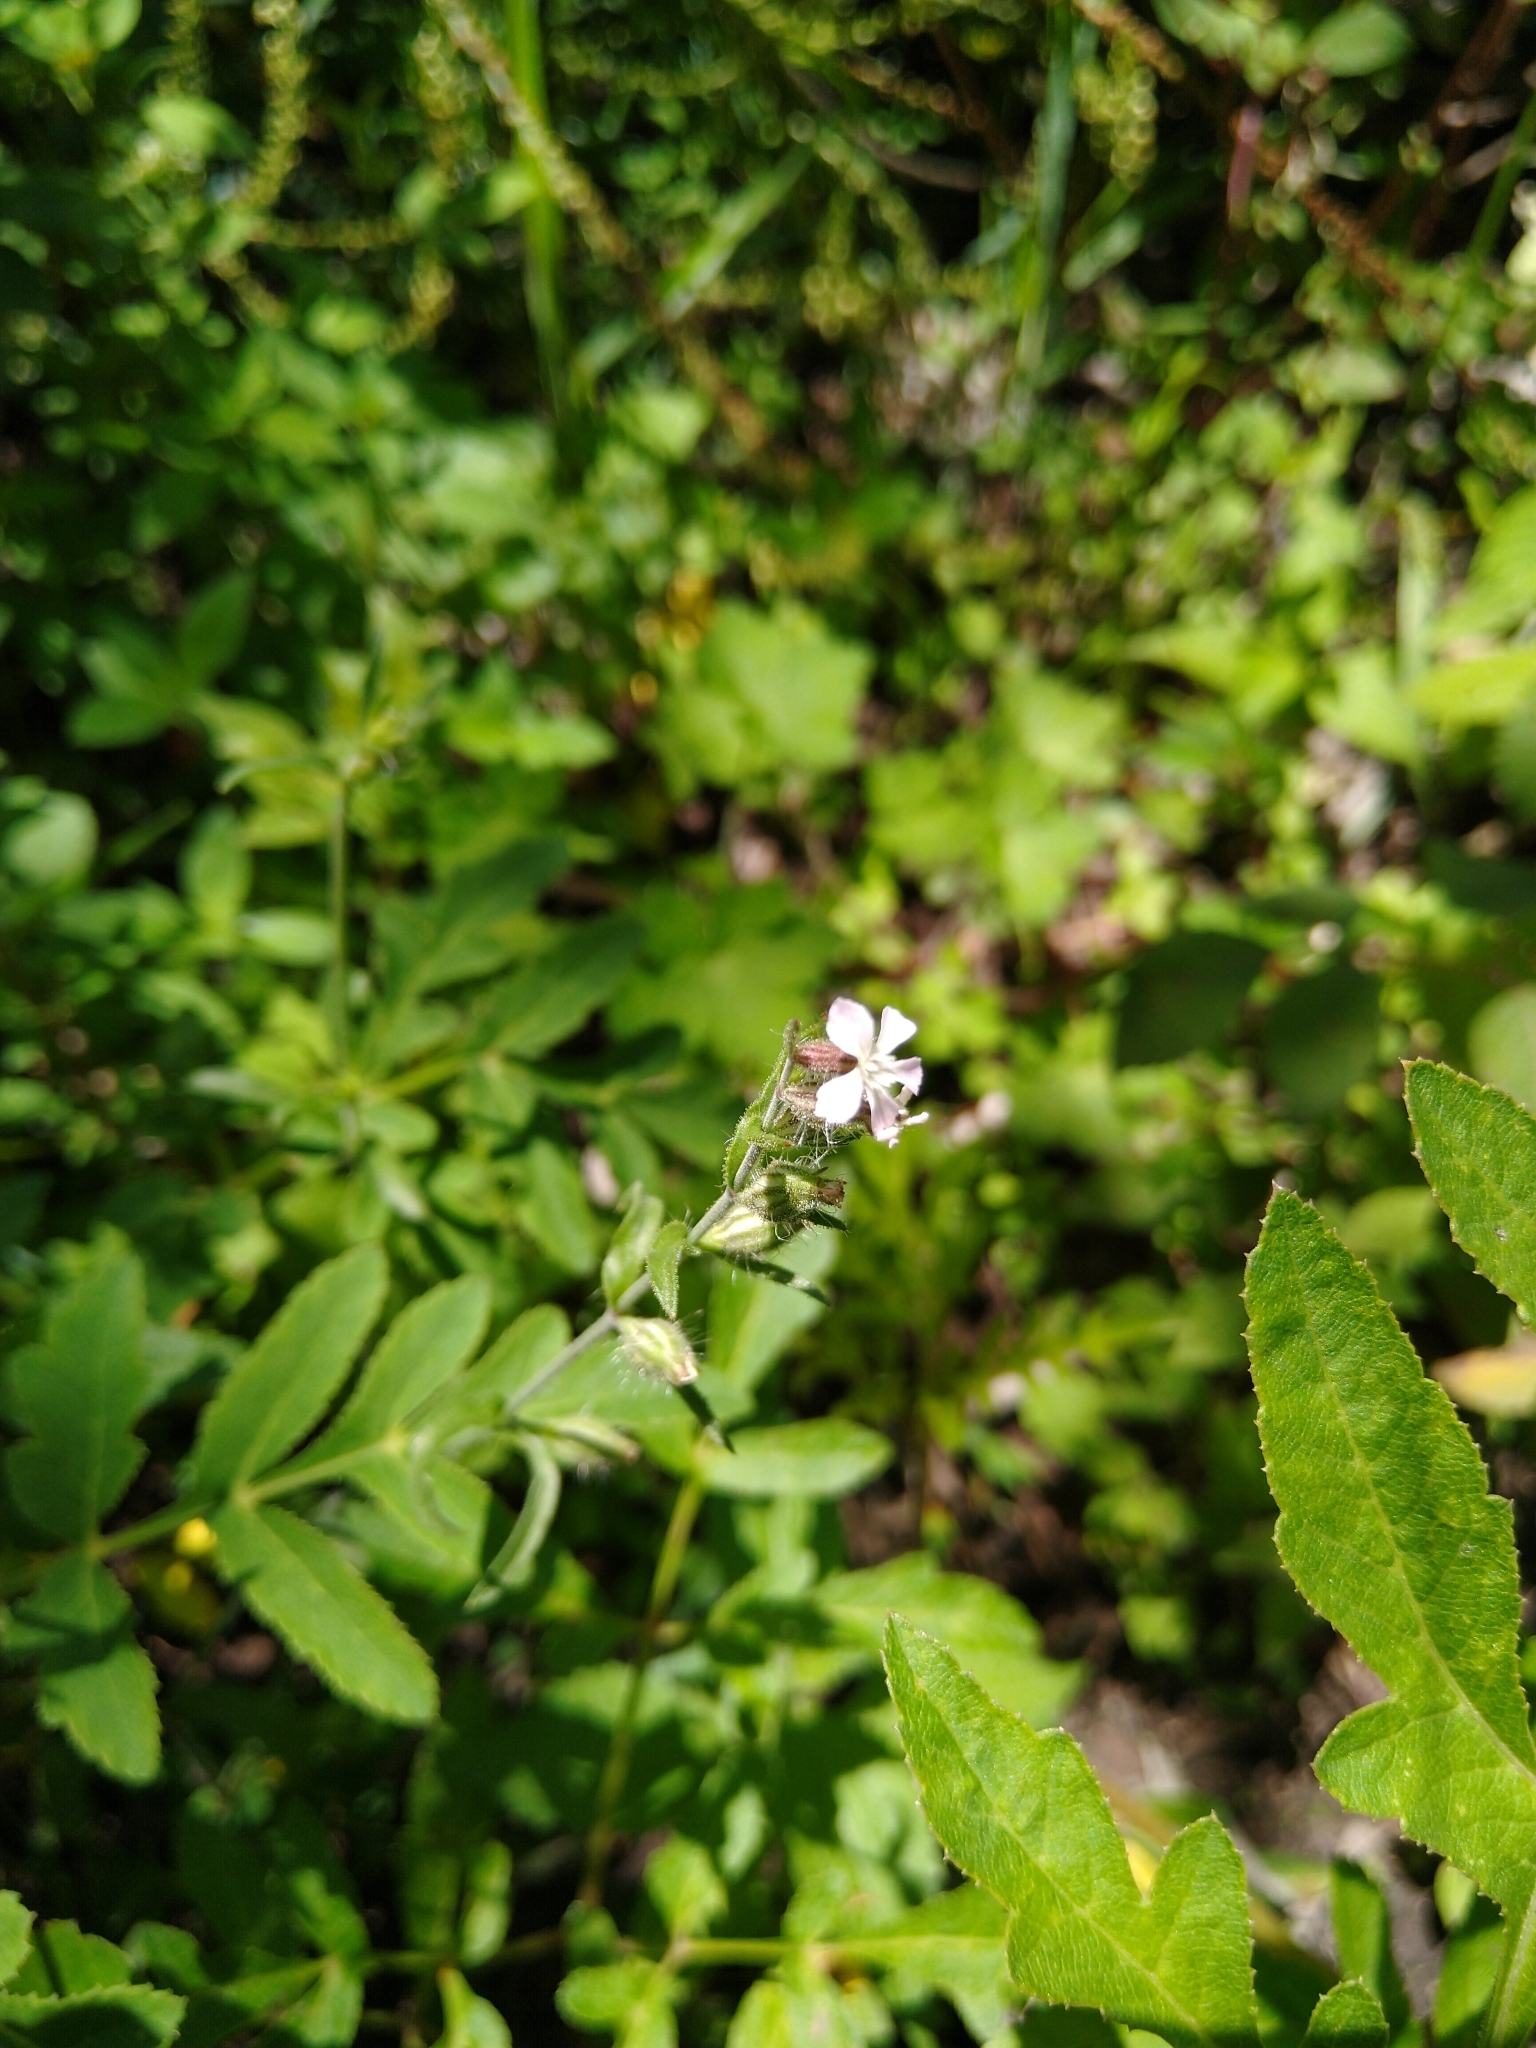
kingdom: Plantae
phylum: Tracheophyta
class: Magnoliopsida
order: Caryophyllales
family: Caryophyllaceae
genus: Silene
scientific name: Silene gallica
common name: Small-flowered catchfly
